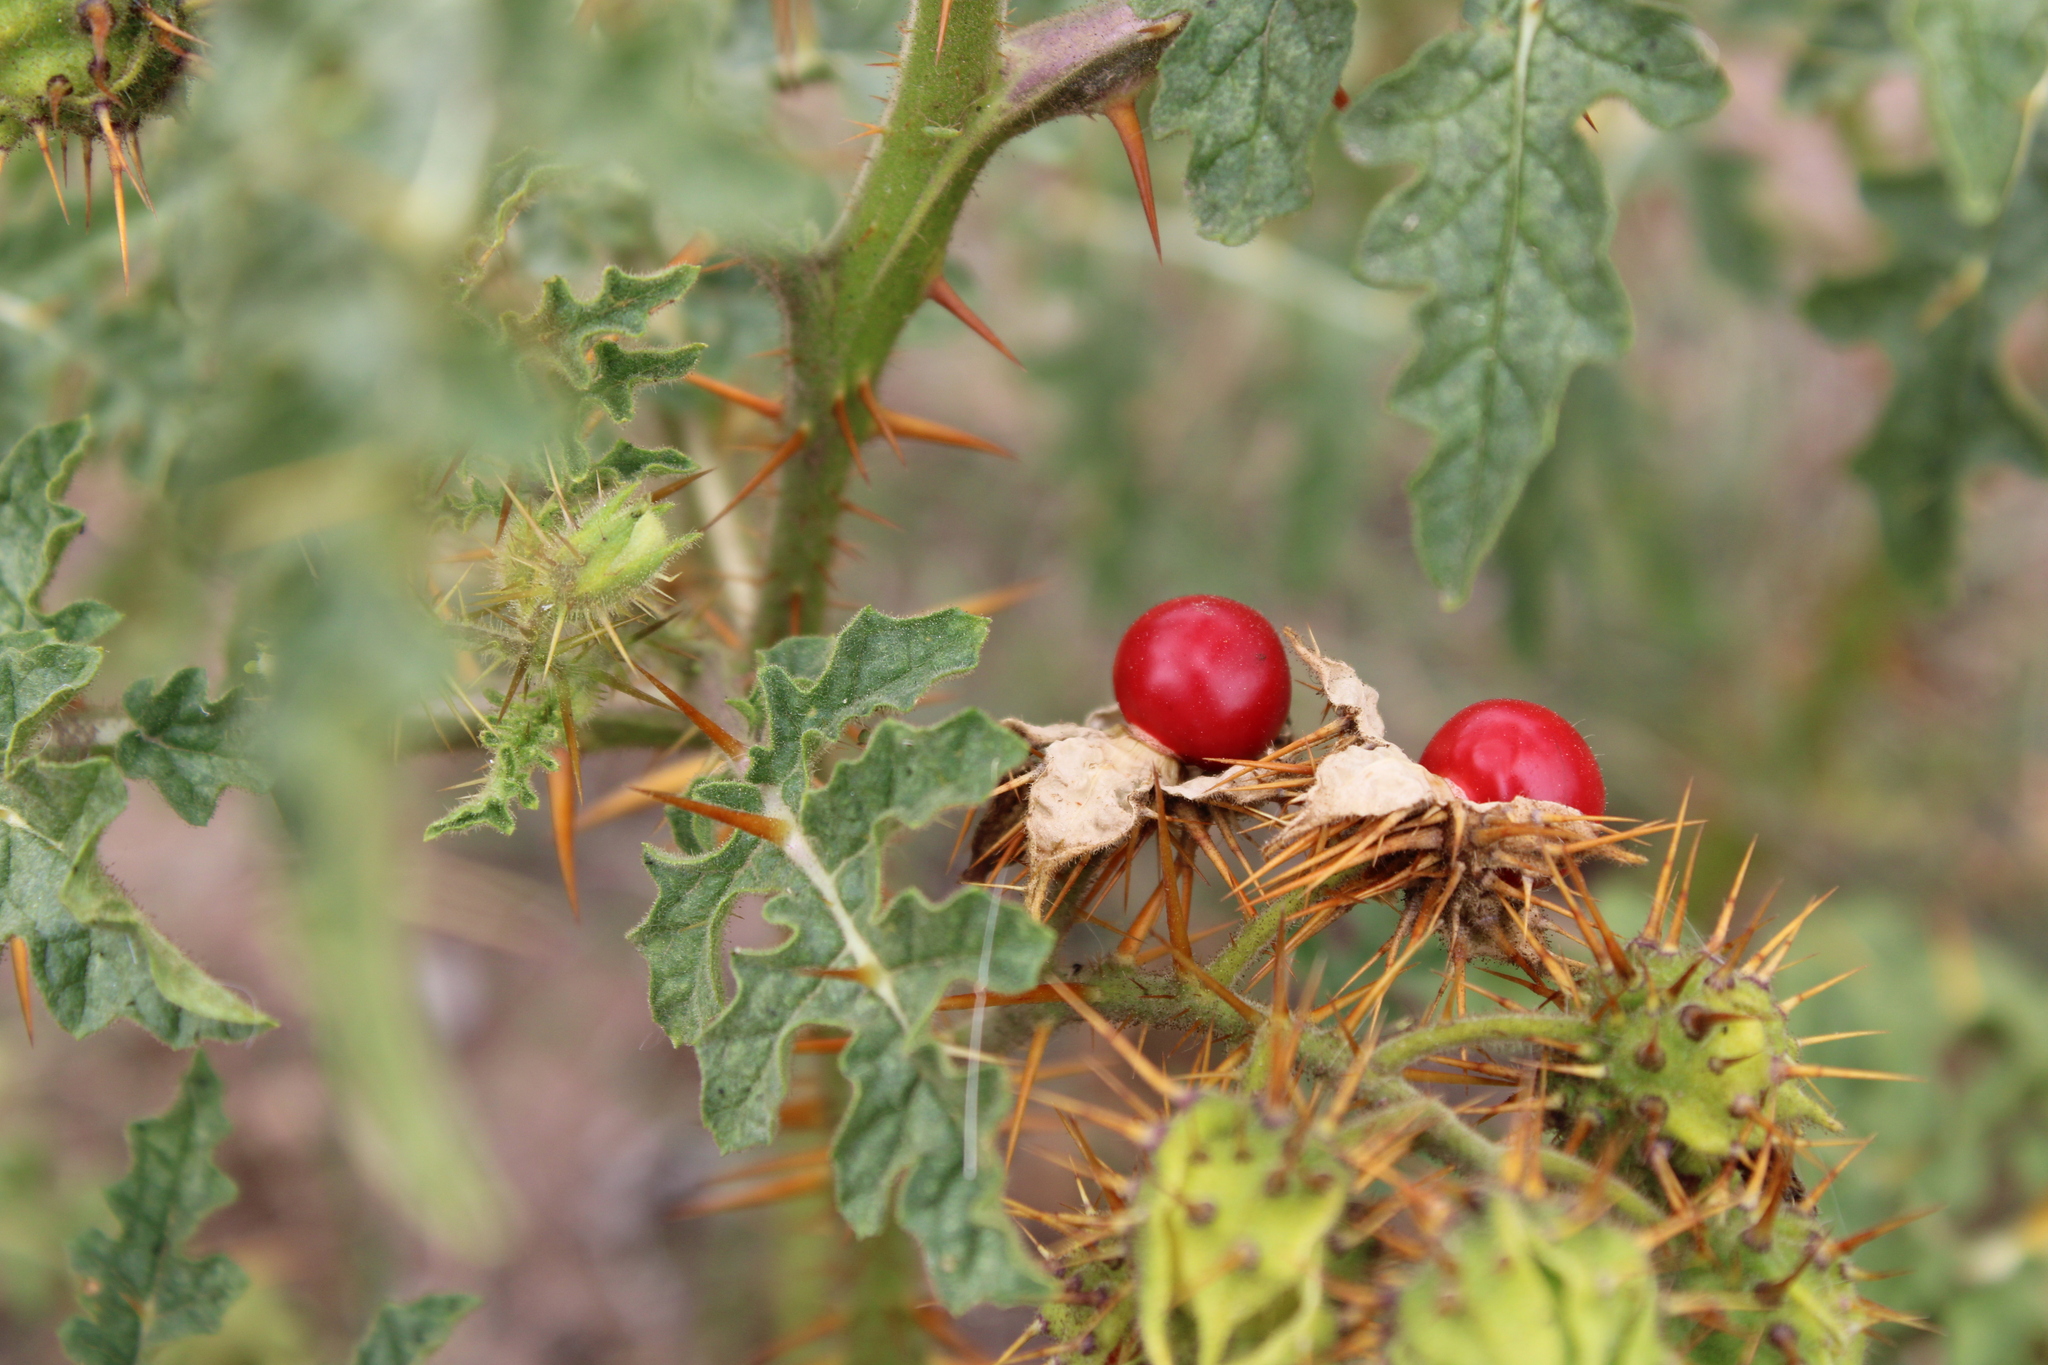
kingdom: Plantae
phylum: Tracheophyta
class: Magnoliopsida
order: Solanales
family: Solanaceae
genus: Solanum
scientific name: Solanum sisymbriifolium
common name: Red buffalo-bur
